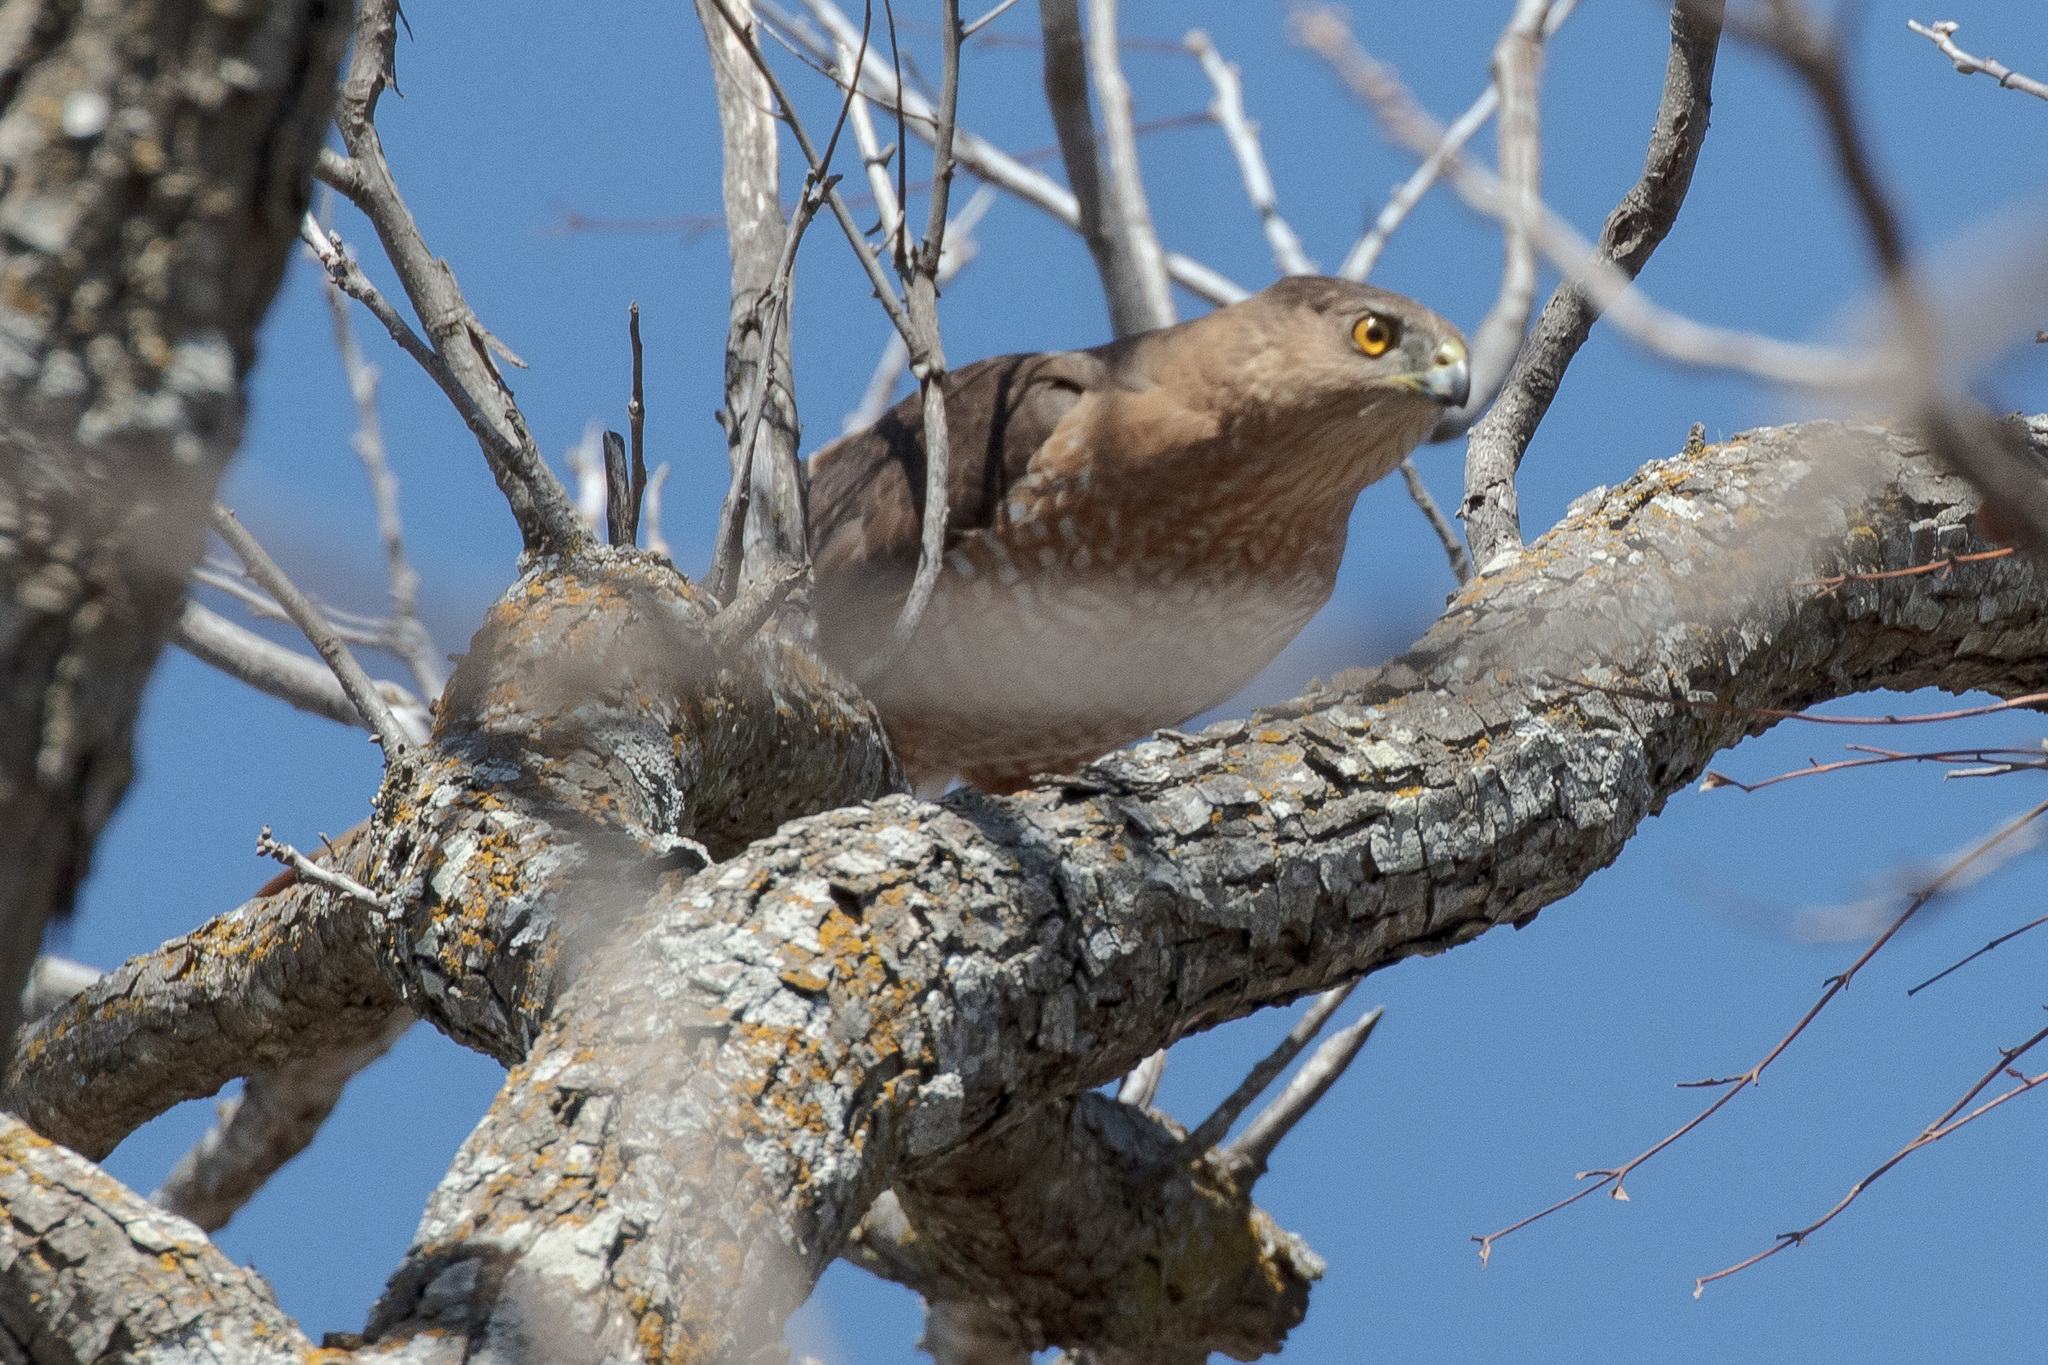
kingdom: Animalia
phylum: Chordata
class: Aves
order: Accipitriformes
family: Accipitridae
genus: Accipiter
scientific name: Accipiter cooperii
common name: Cooper's hawk
